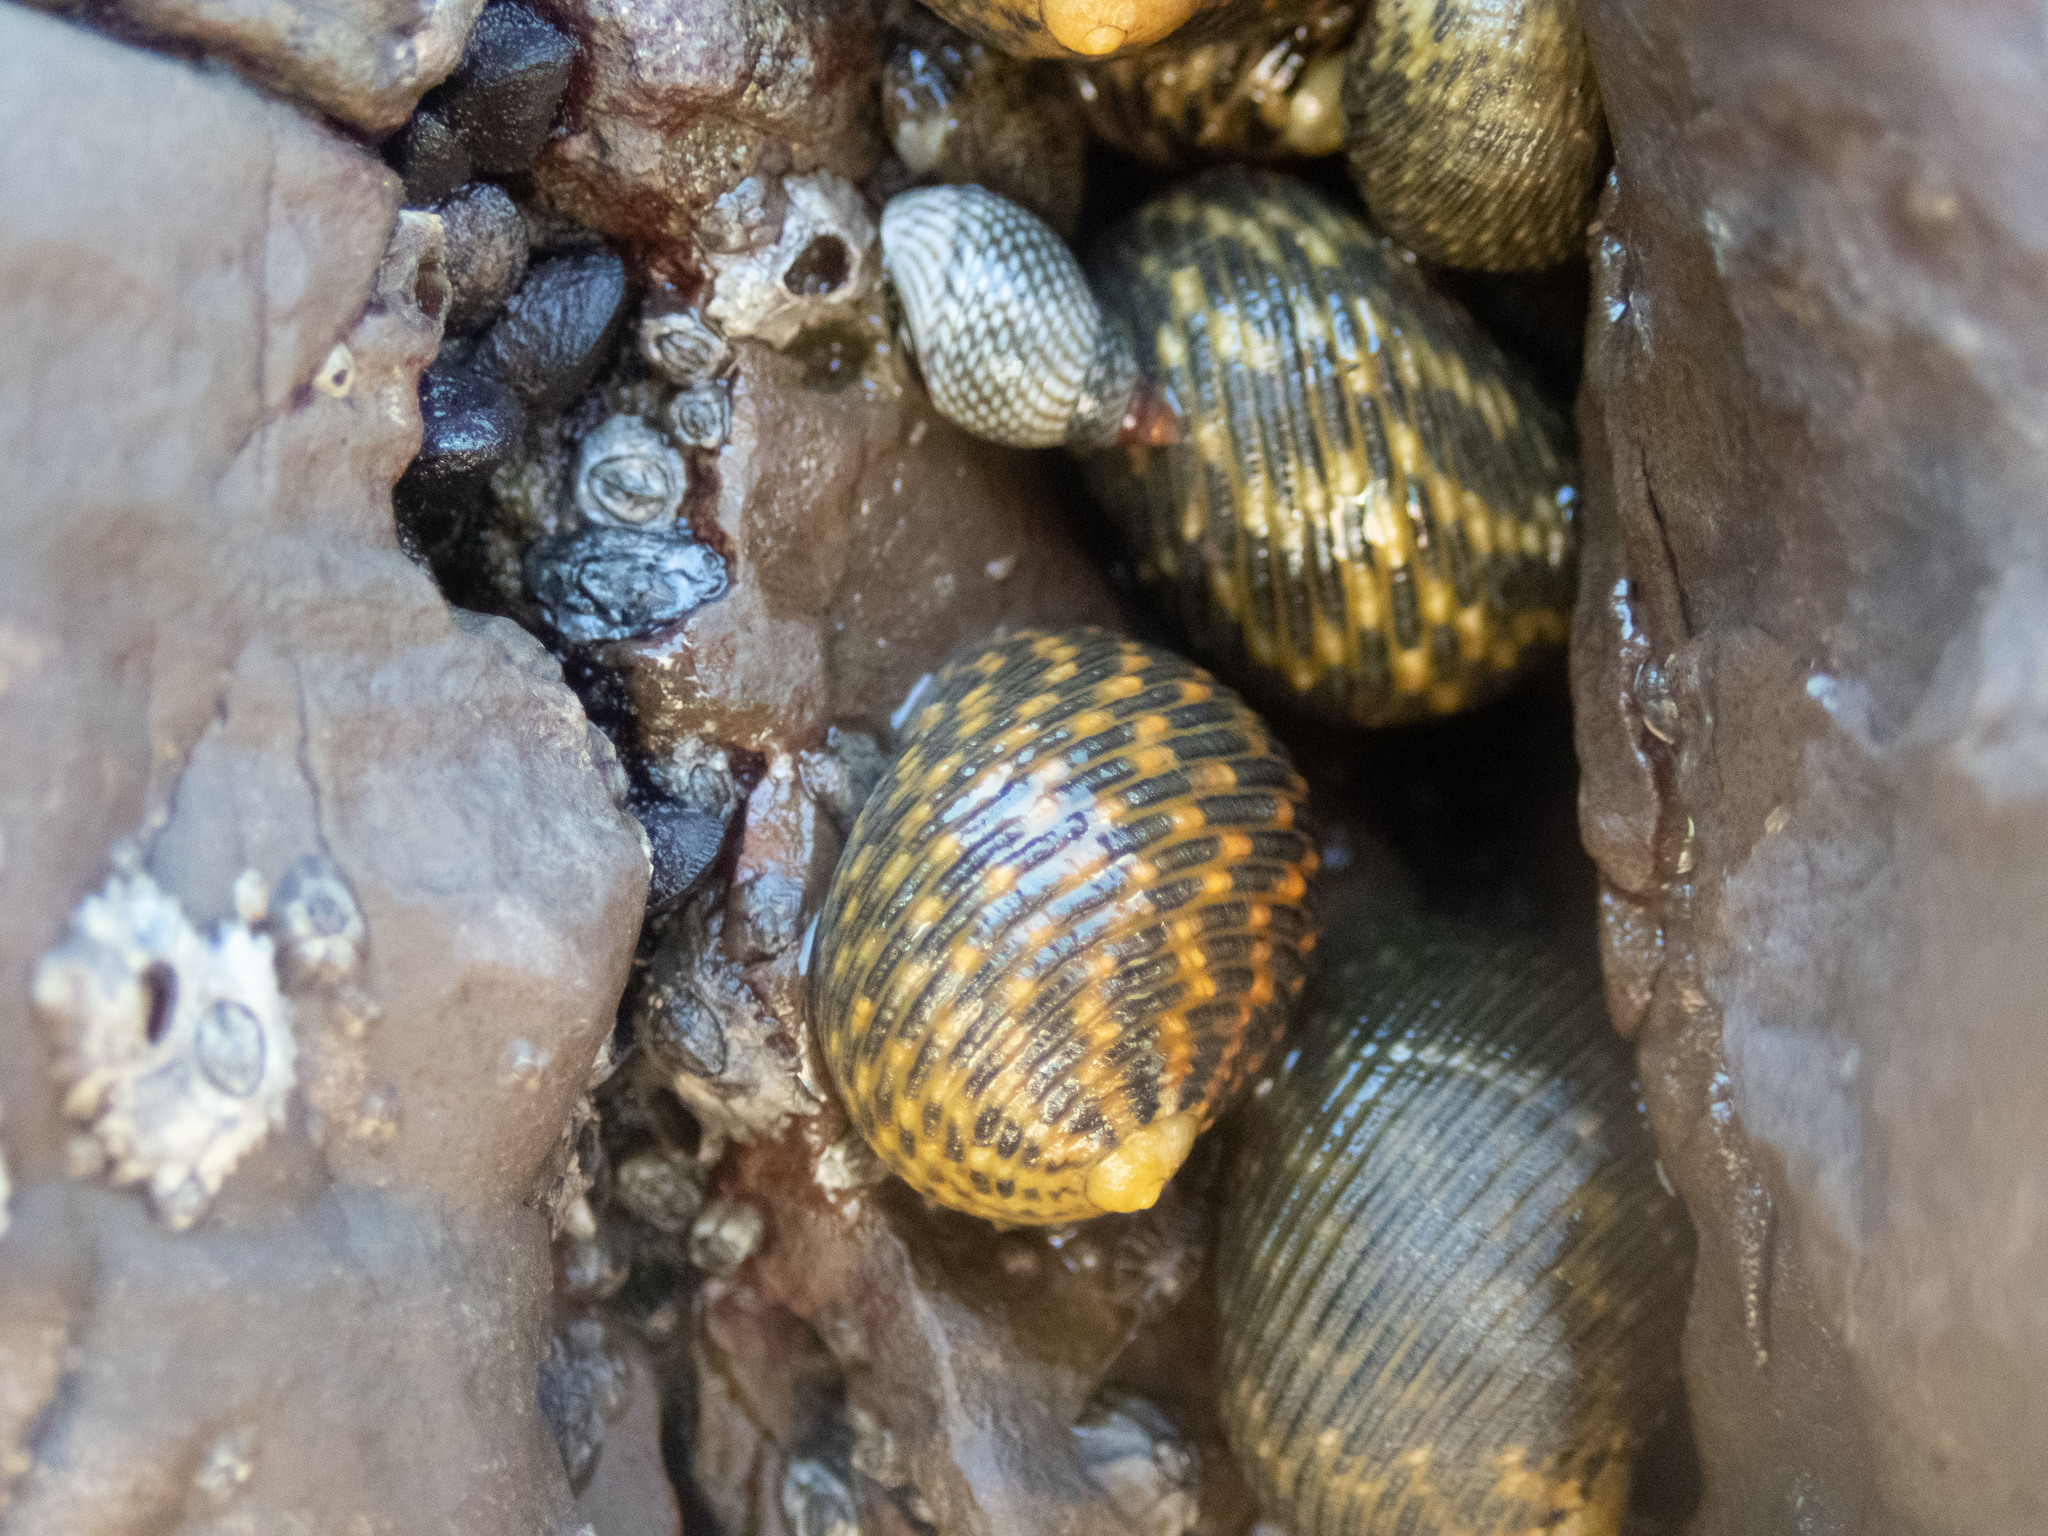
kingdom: Animalia
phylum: Mollusca
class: Gastropoda
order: Cycloneritida
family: Neritidae
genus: Nerita
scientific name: Nerita scabricosta
